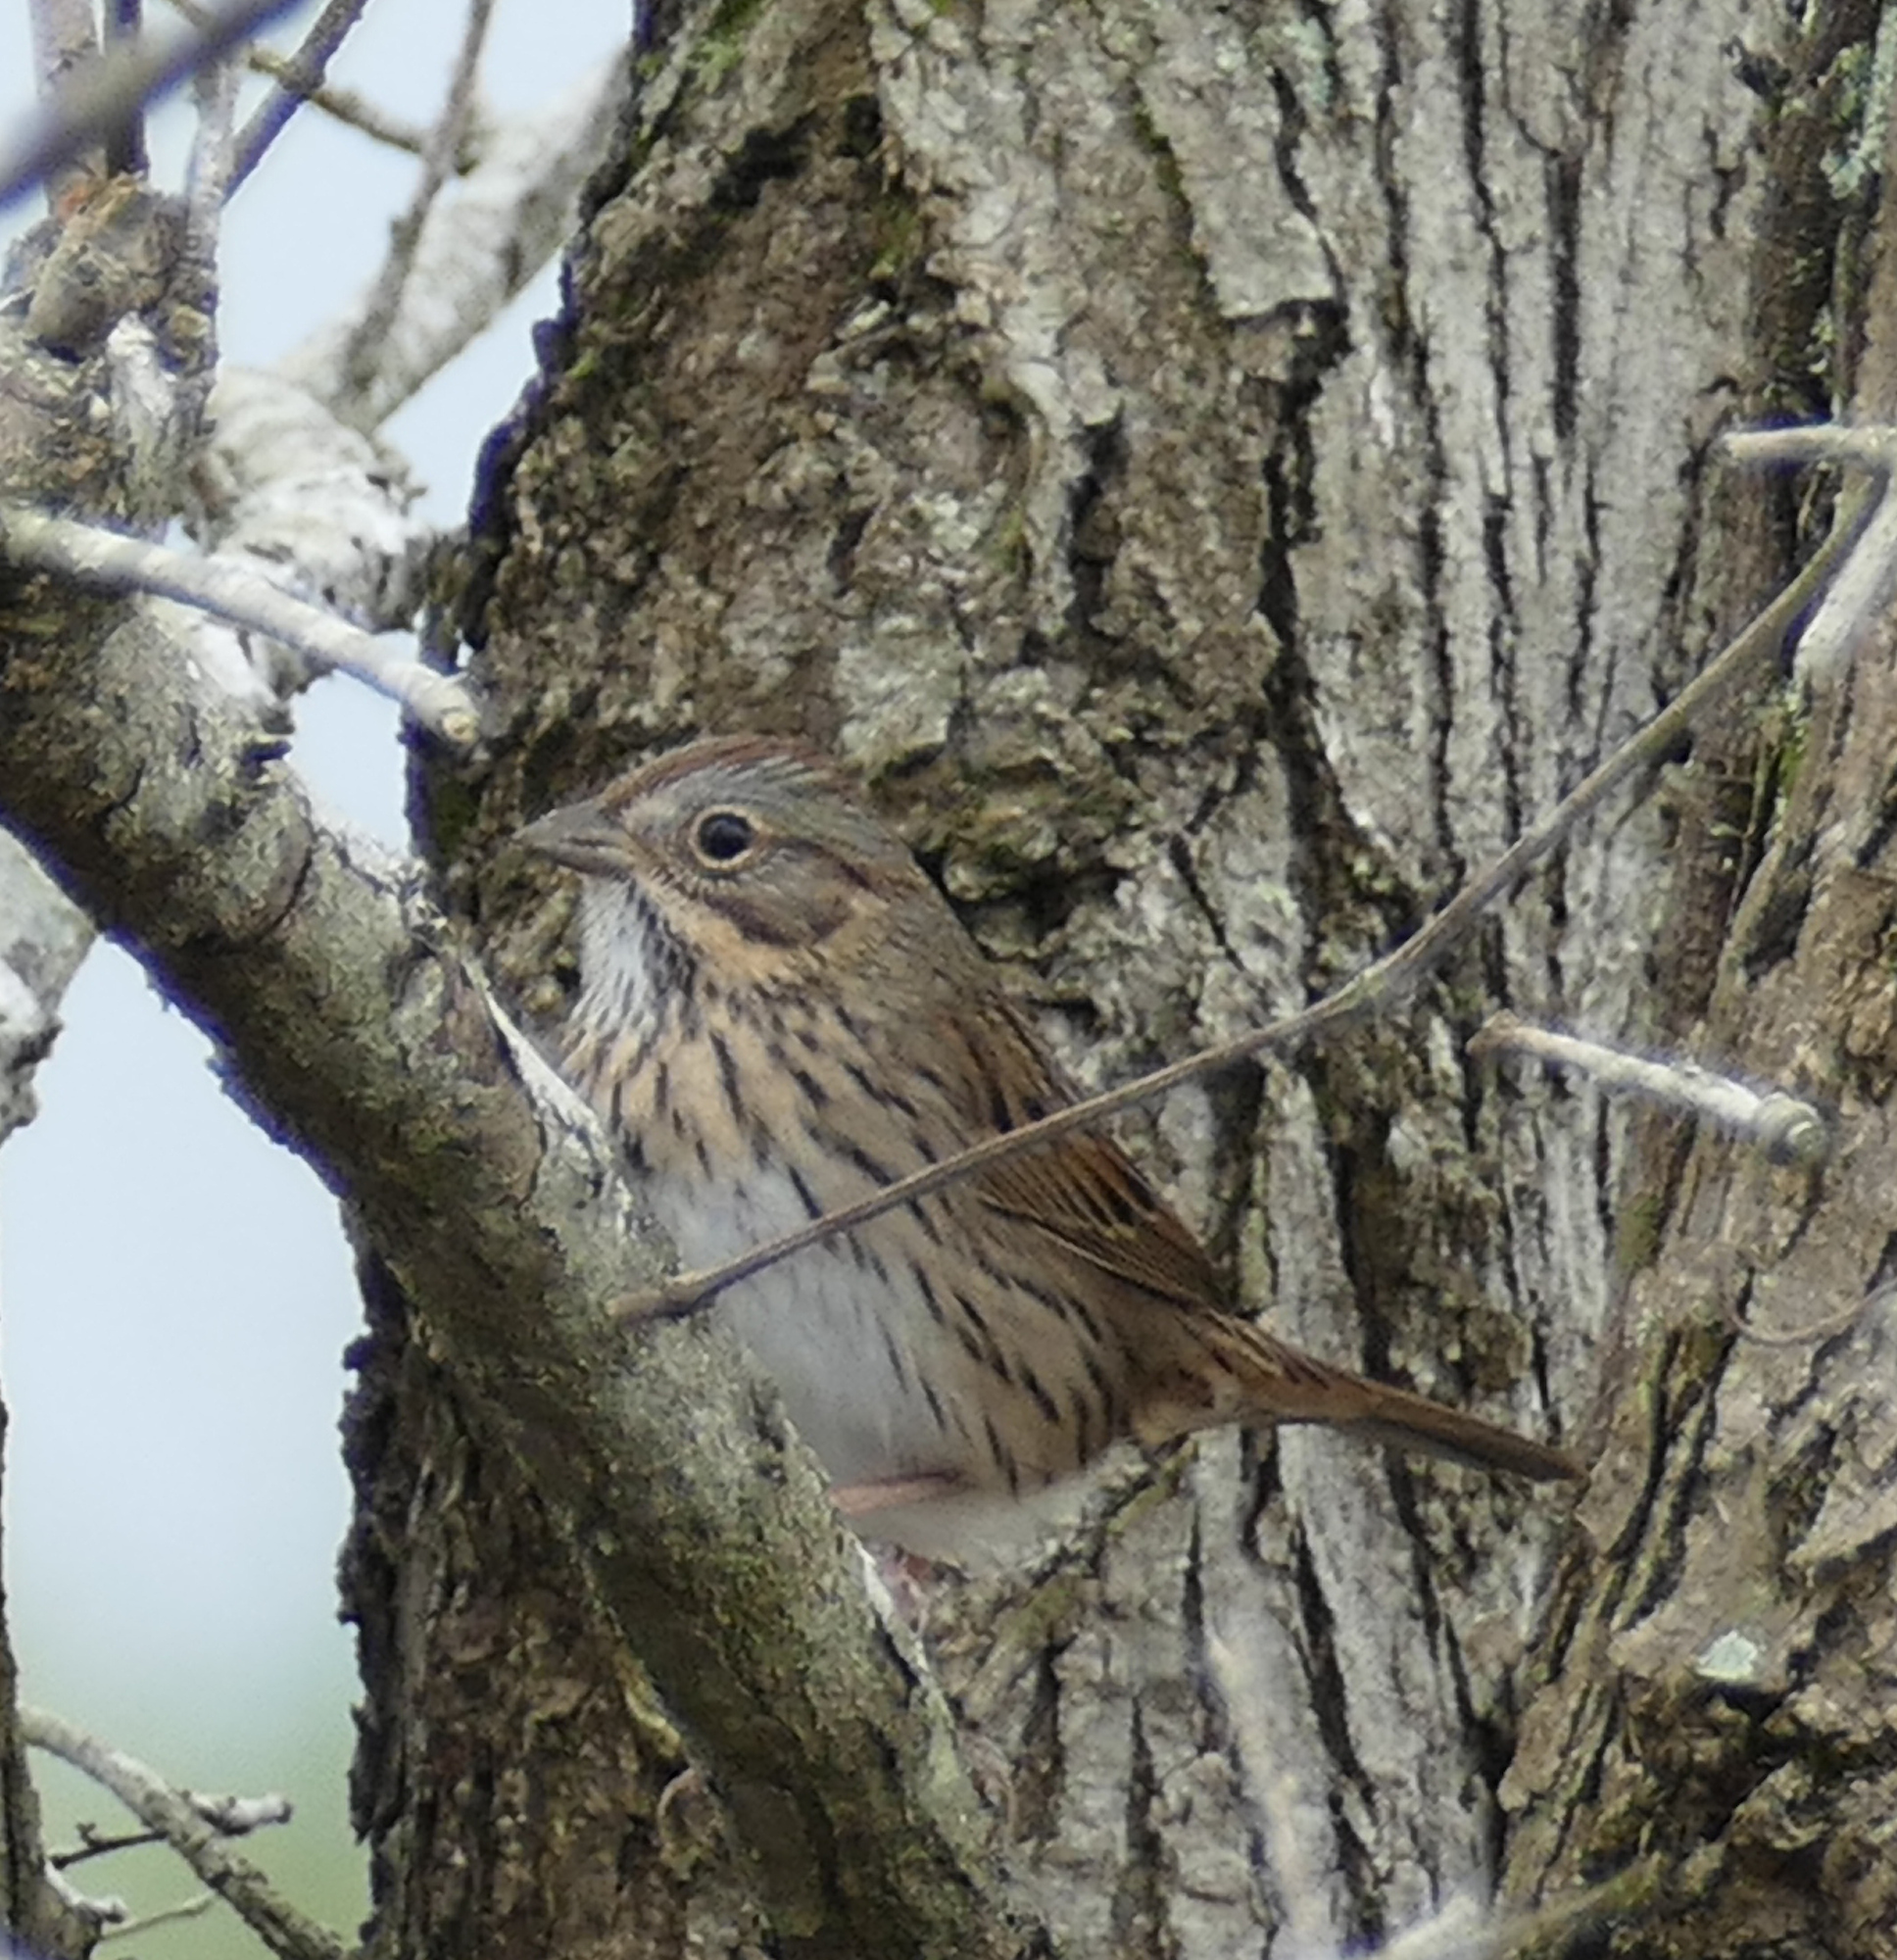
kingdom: Animalia
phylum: Chordata
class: Aves
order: Passeriformes
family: Passerellidae
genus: Melospiza
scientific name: Melospiza lincolnii
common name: Lincoln's sparrow
